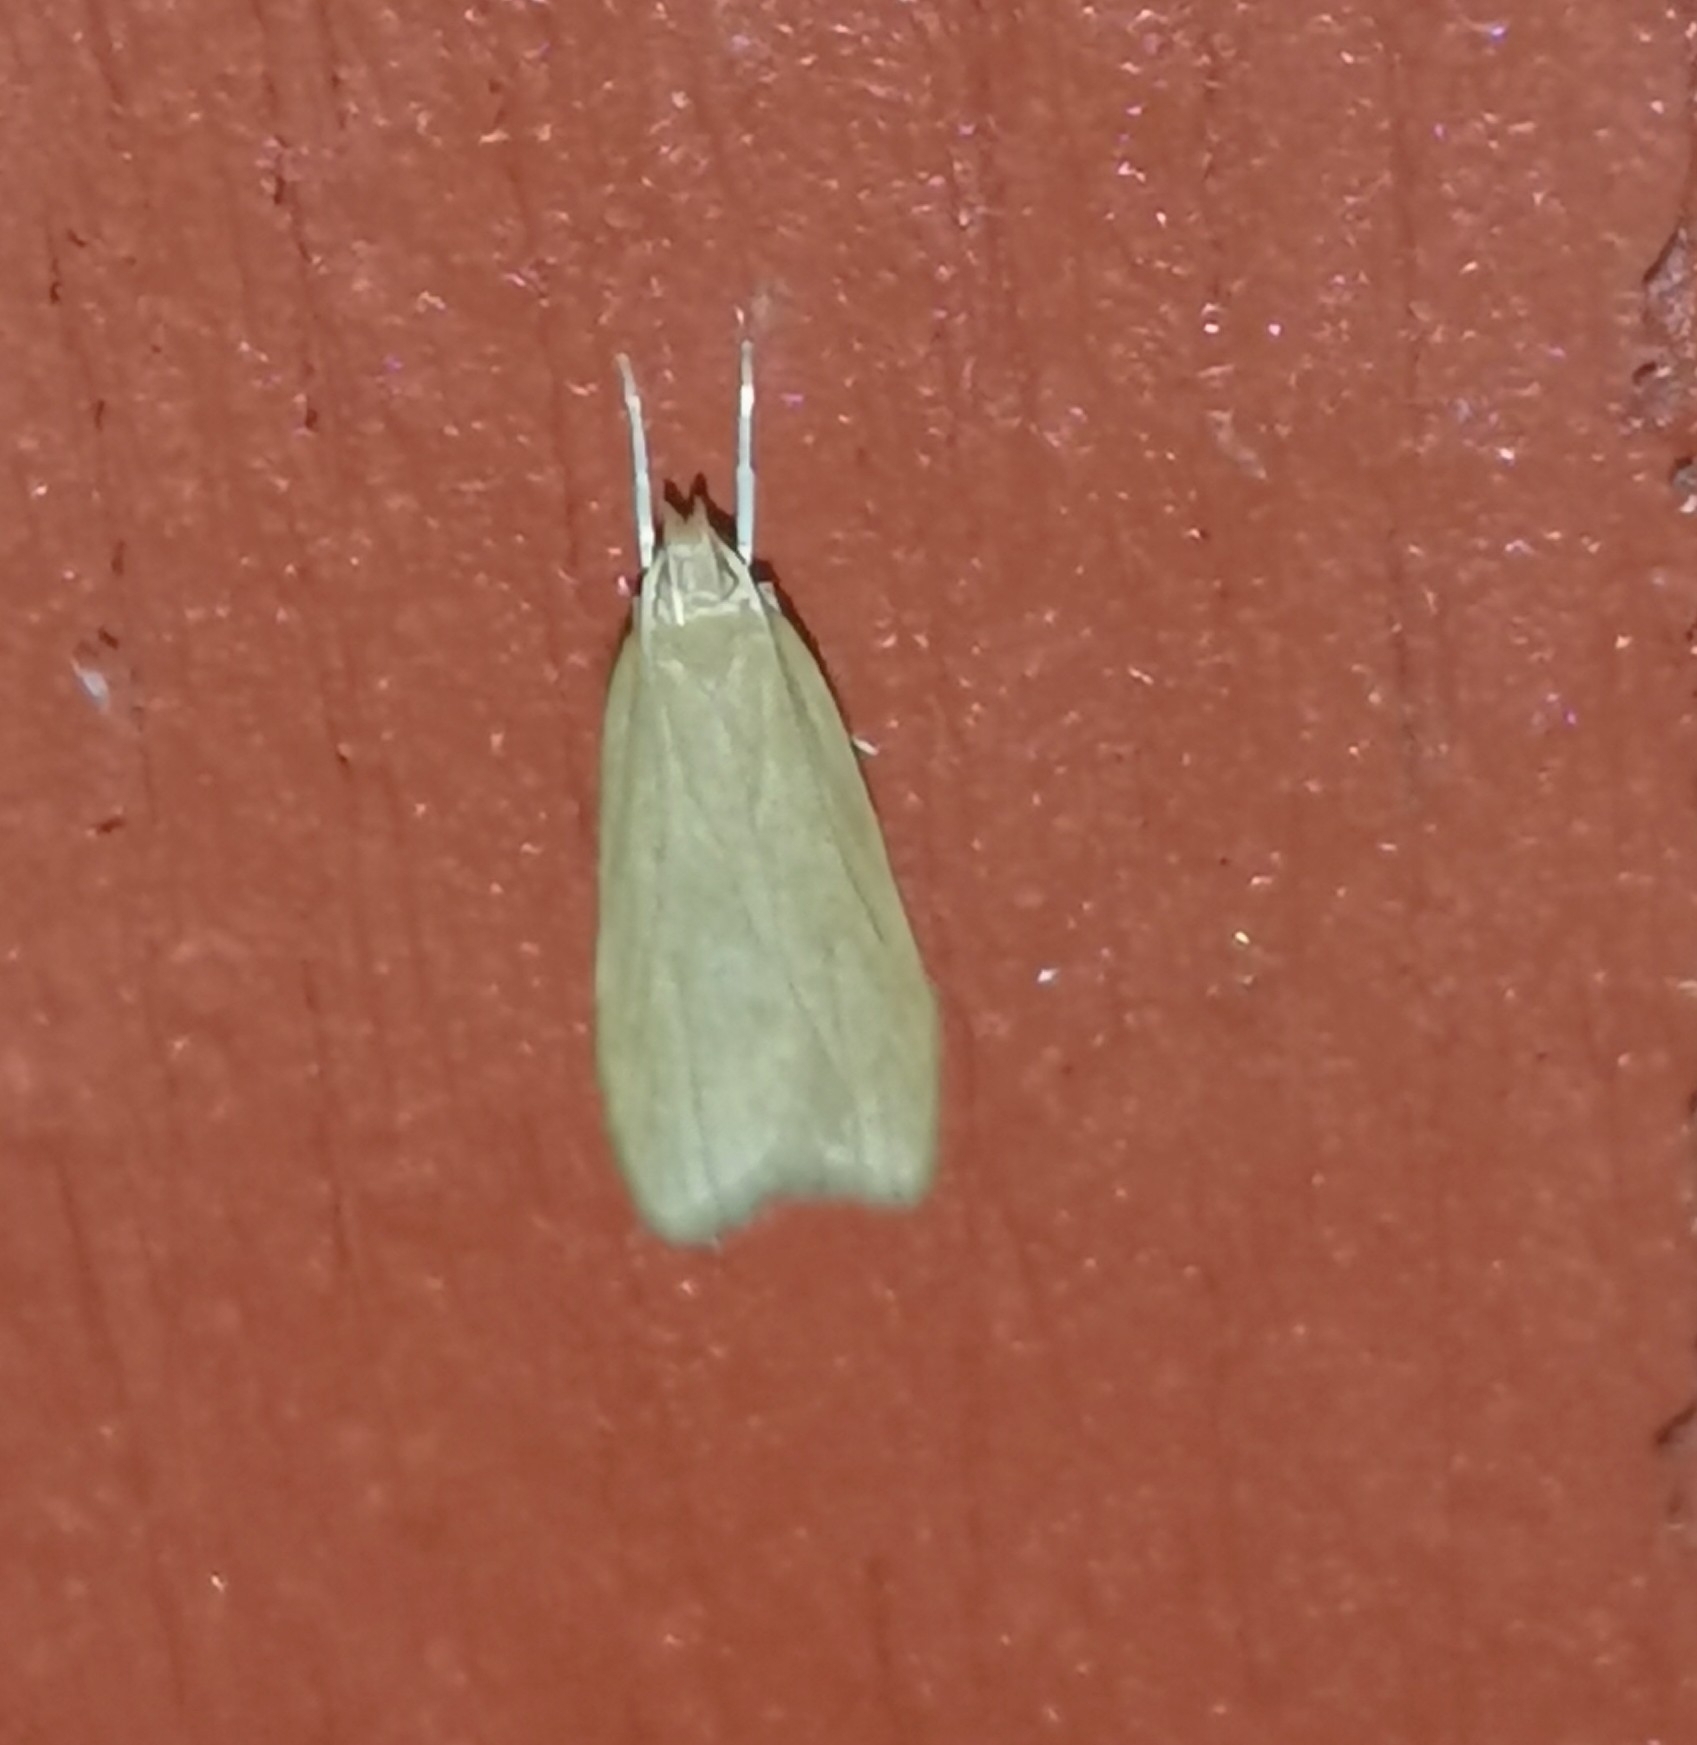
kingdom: Animalia
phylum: Arthropoda
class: Insecta
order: Lepidoptera
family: Gelechiidae
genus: Helcystogramma
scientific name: Helcystogramma rufescens
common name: Orange crest
